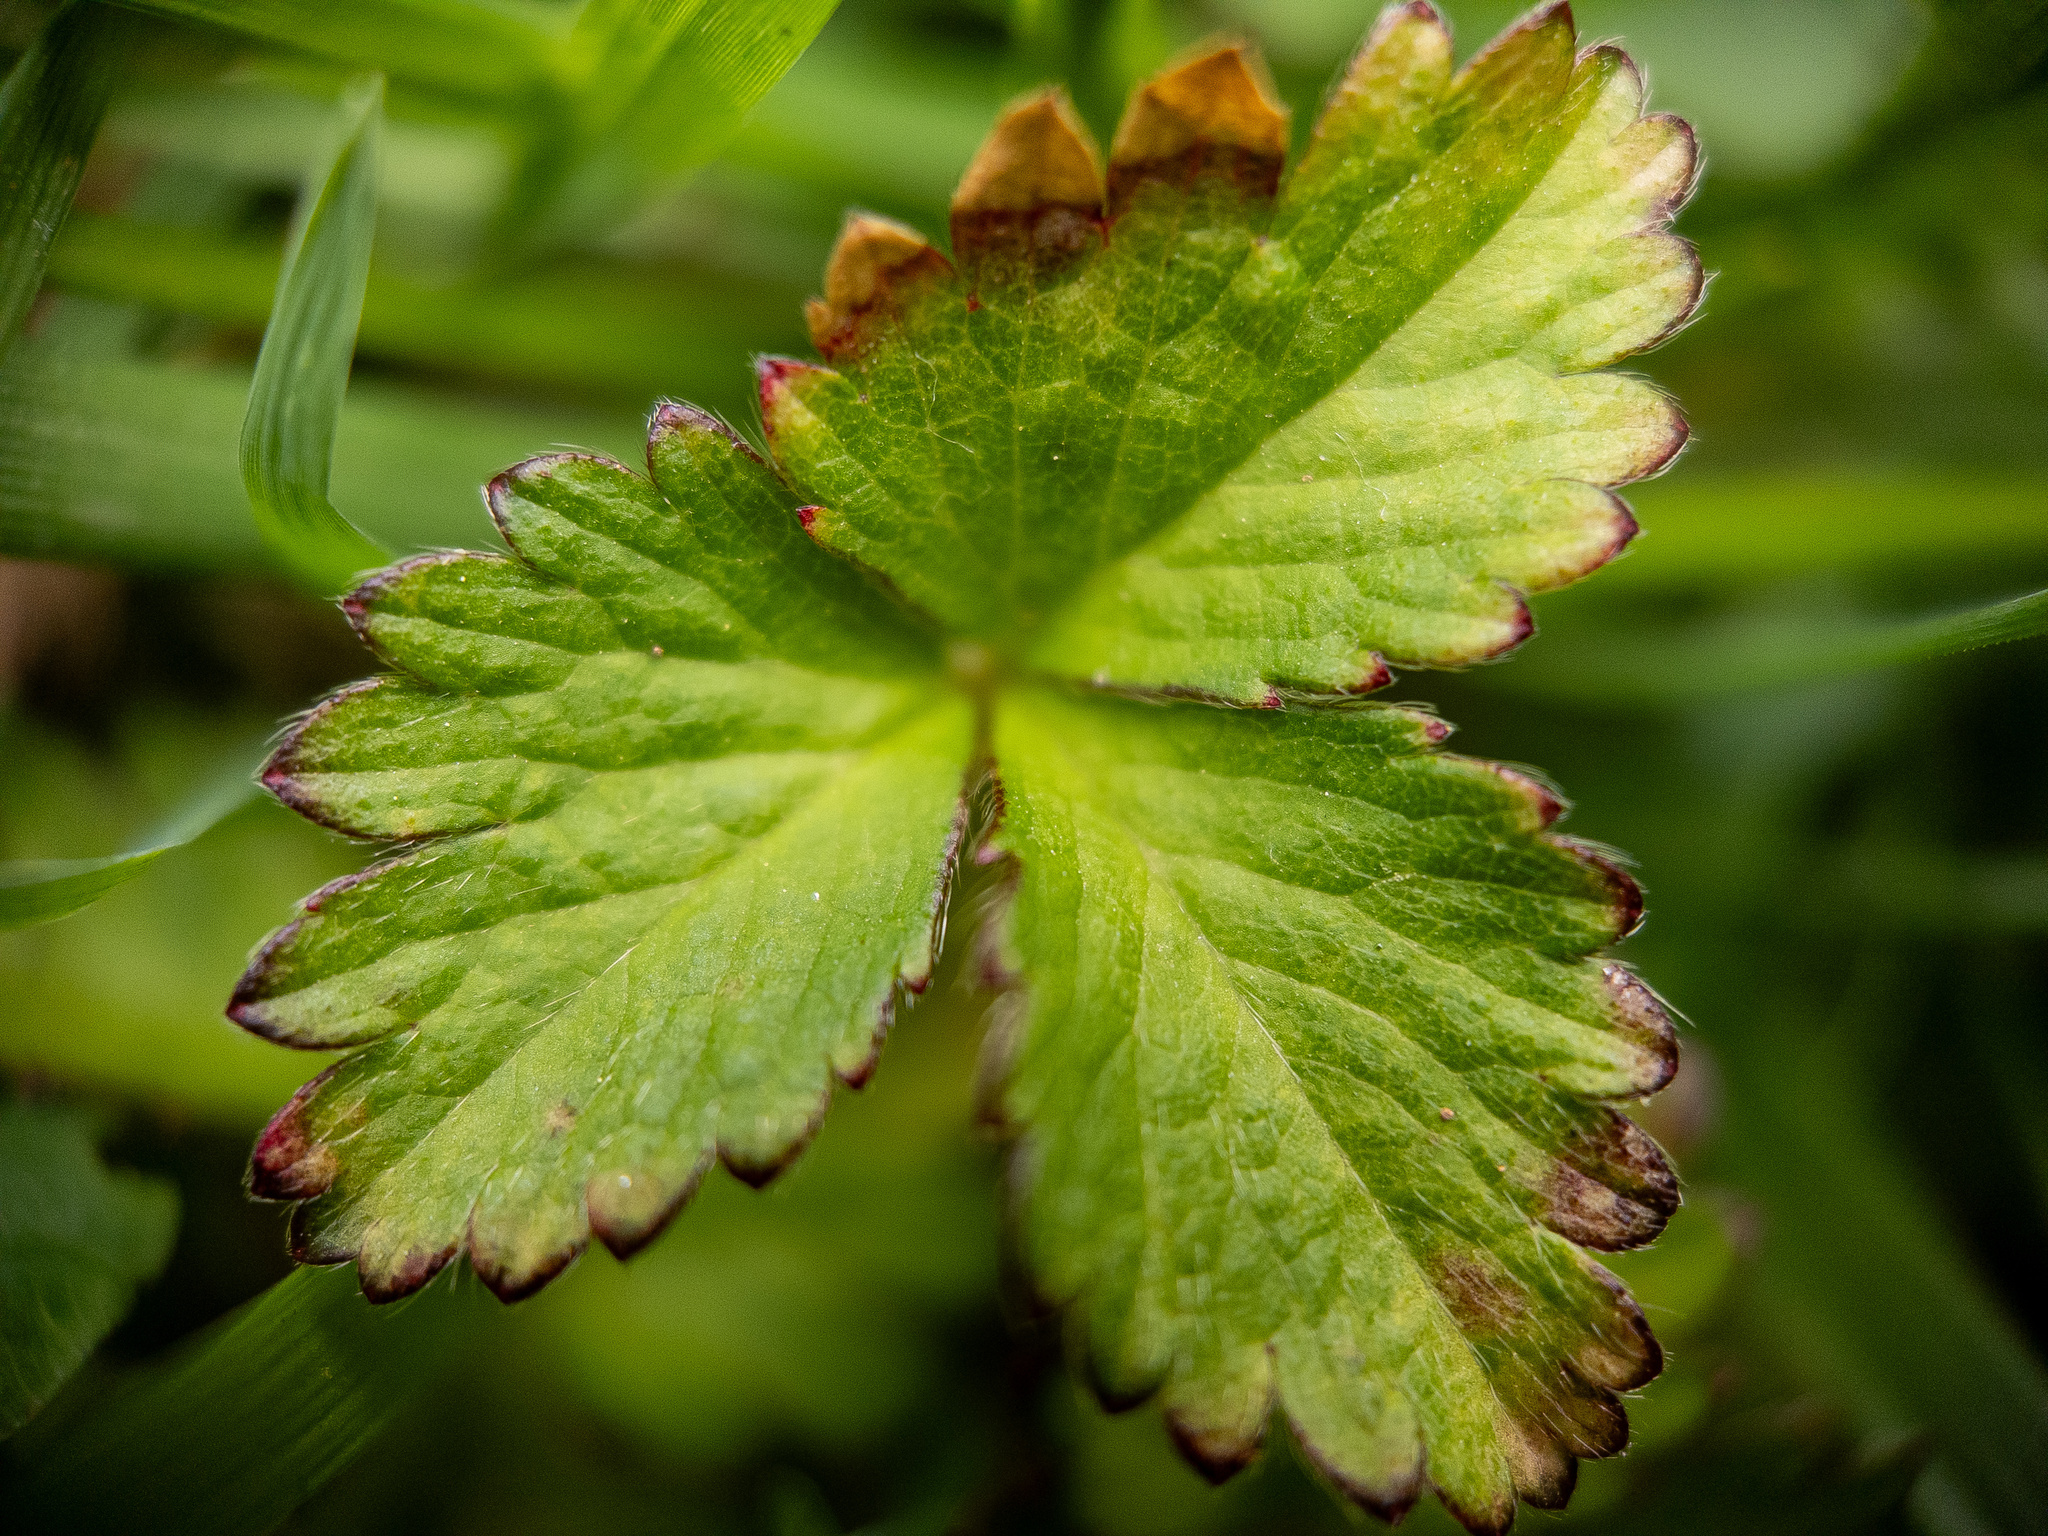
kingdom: Plantae
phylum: Tracheophyta
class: Magnoliopsida
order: Rosales
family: Rosaceae
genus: Potentilla
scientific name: Potentilla indica
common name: Yellow-flowered strawberry
